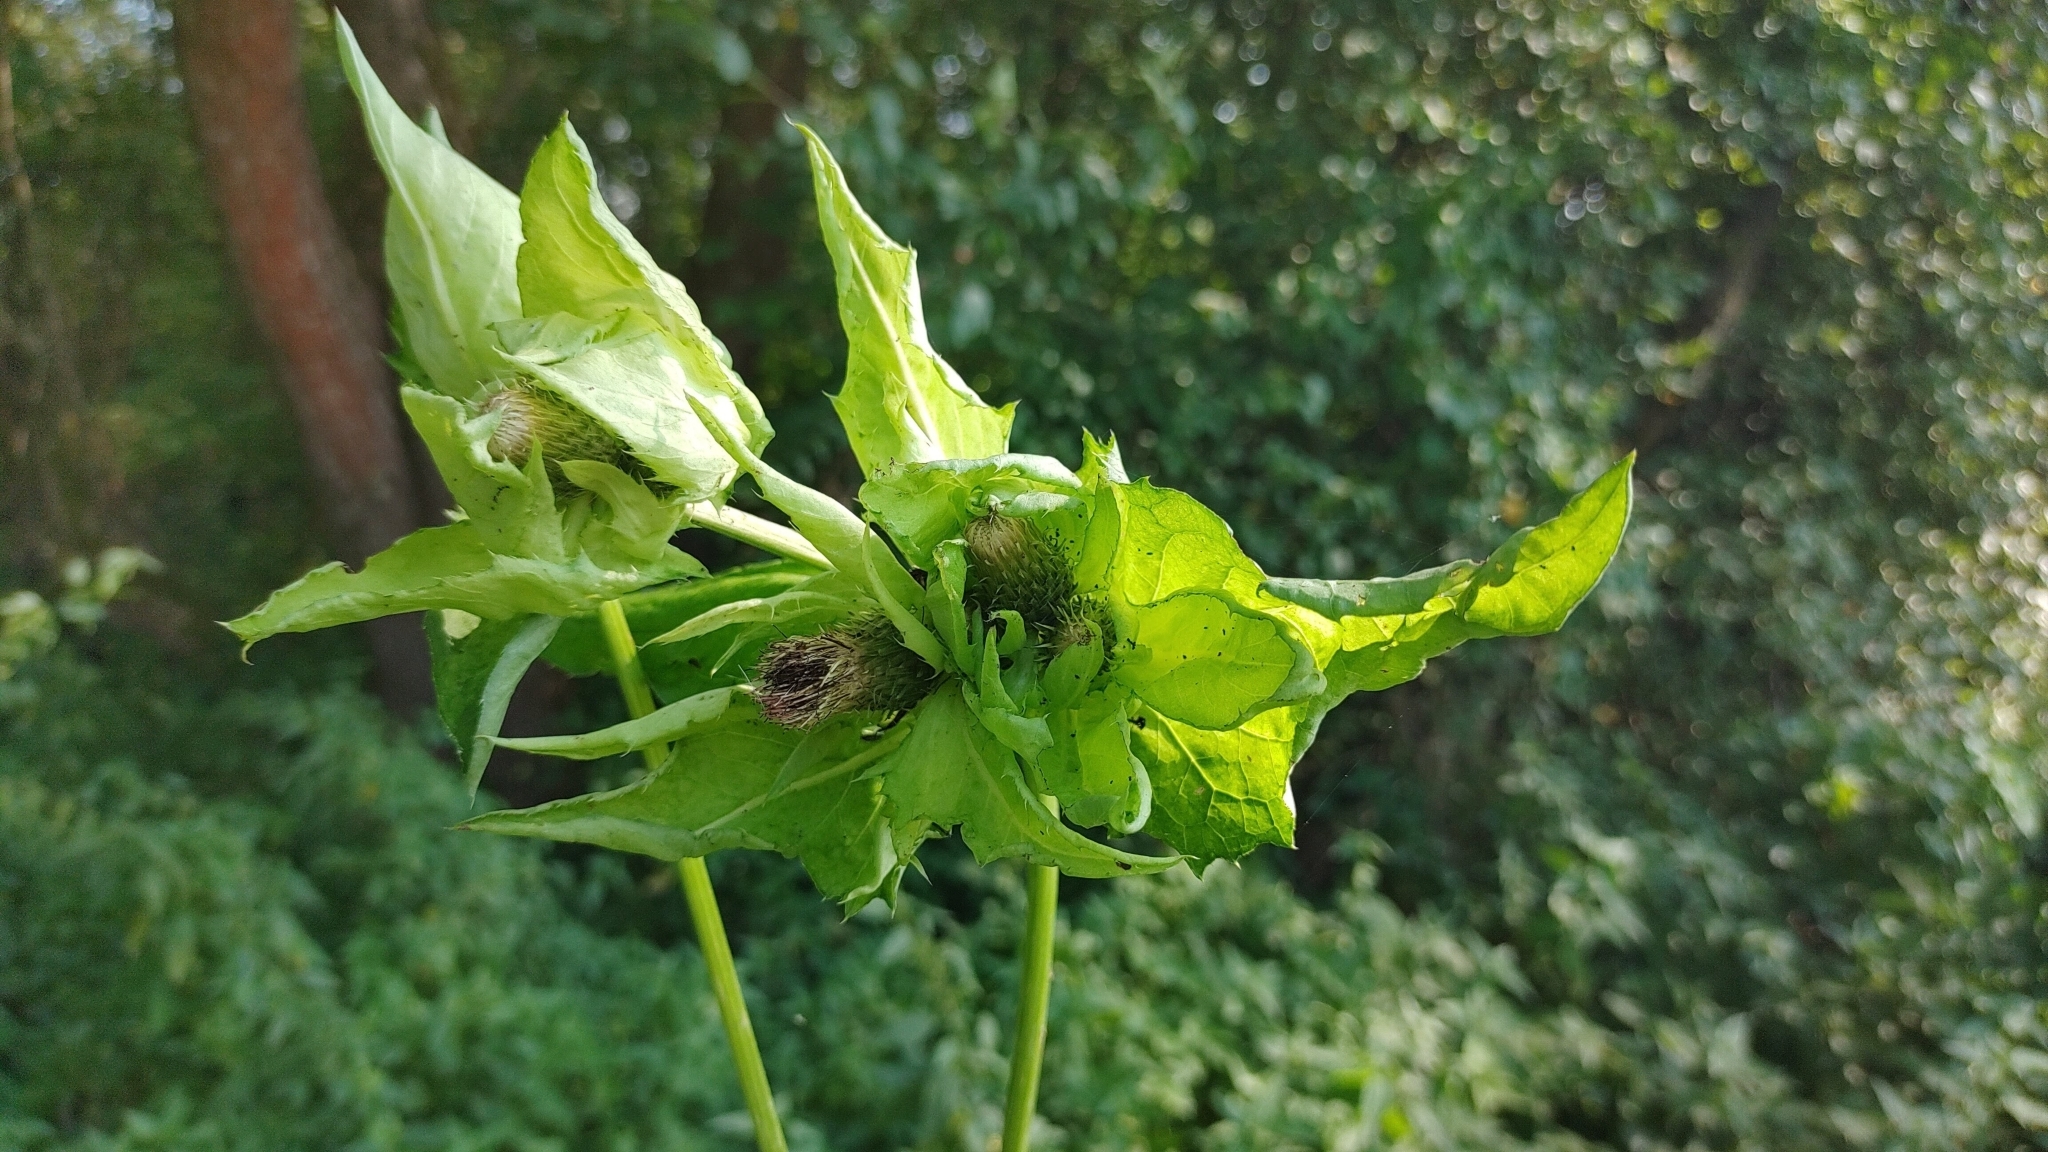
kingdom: Plantae
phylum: Tracheophyta
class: Magnoliopsida
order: Asterales
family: Asteraceae
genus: Cirsium
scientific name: Cirsium oleraceum
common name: Cabbage thistle
